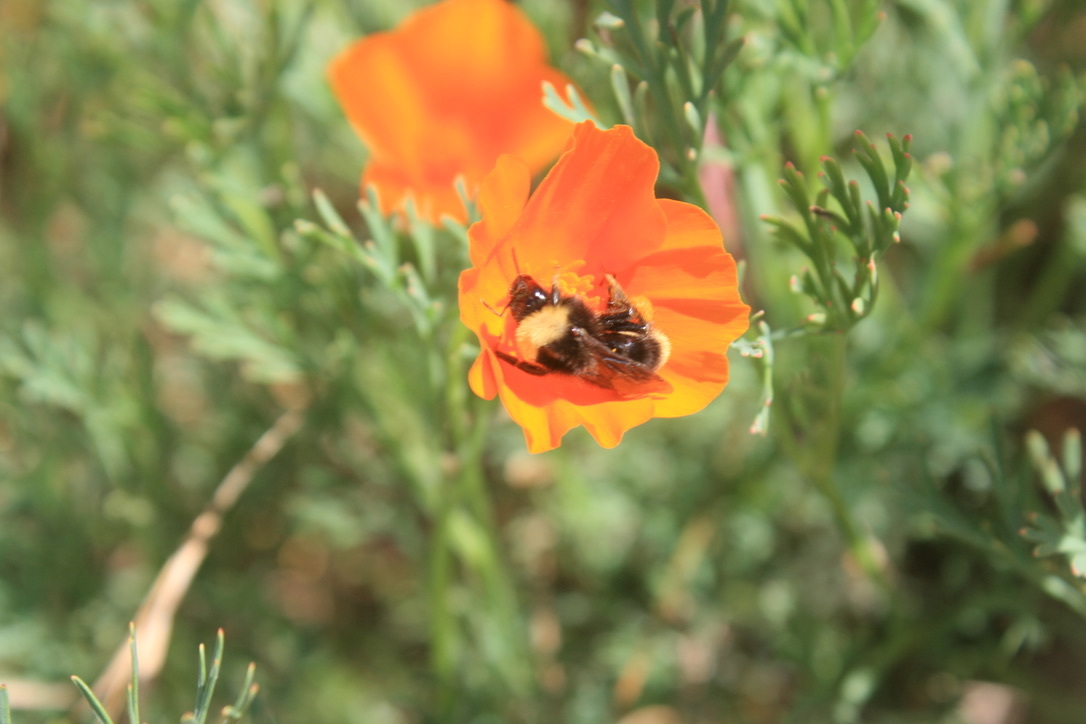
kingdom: Animalia
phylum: Arthropoda
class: Insecta
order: Hymenoptera
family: Apidae
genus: Bombus
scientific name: Bombus californicus
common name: California bumble bee
